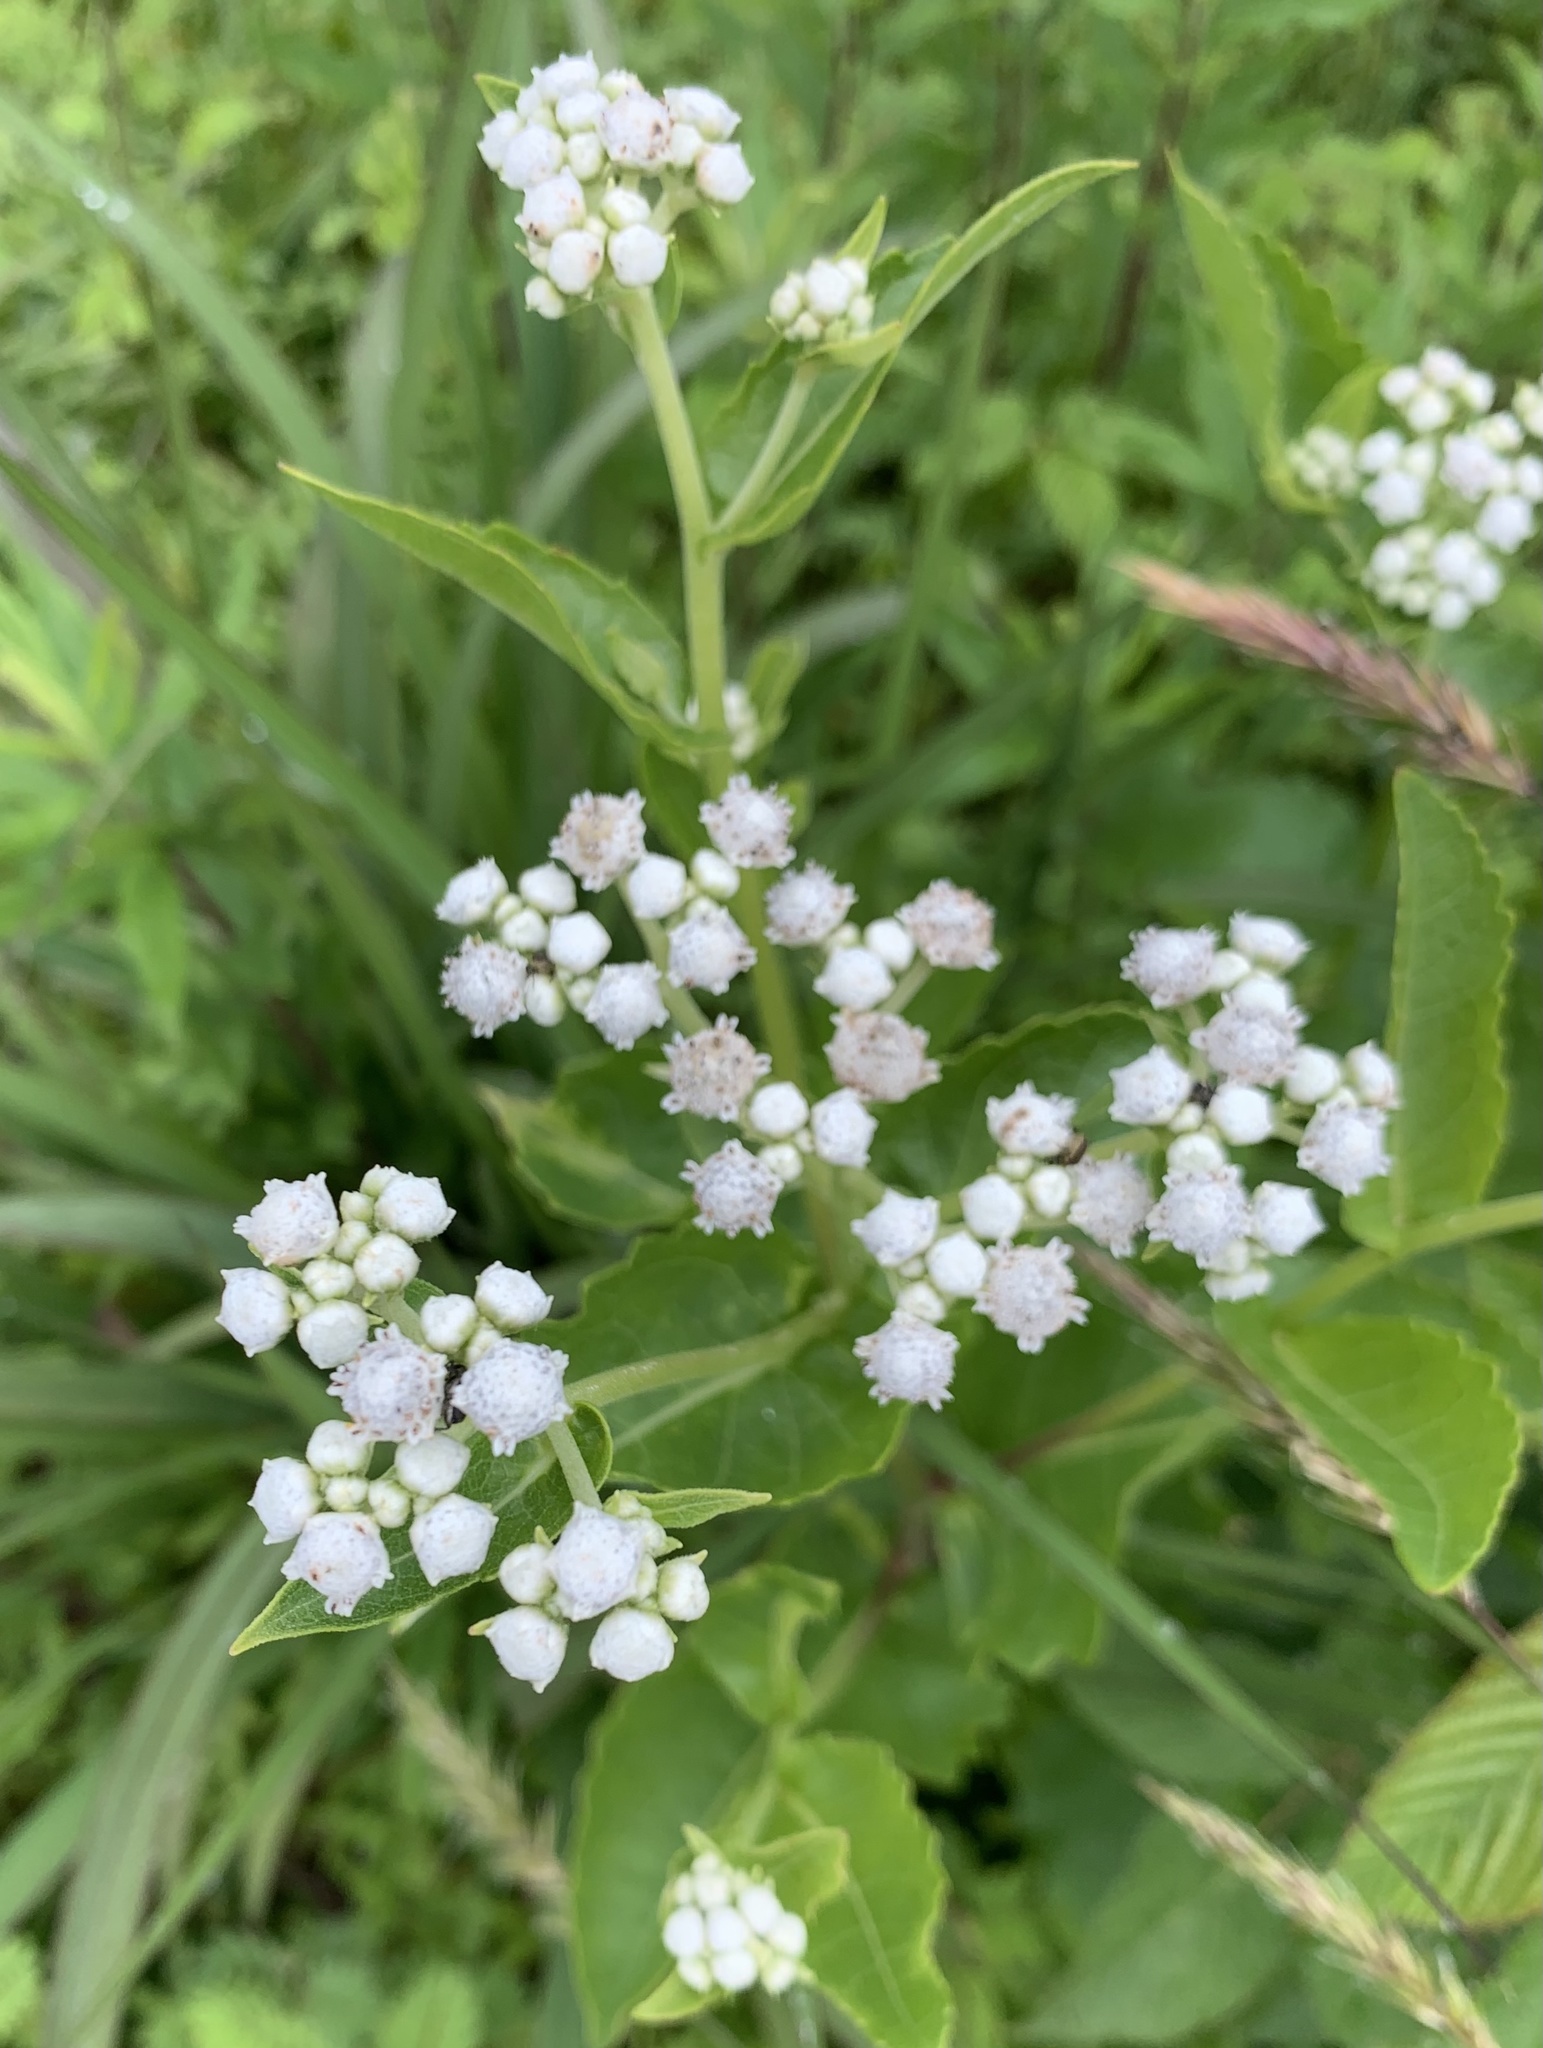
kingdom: Plantae
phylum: Tracheophyta
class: Magnoliopsida
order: Asterales
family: Asteraceae
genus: Parthenium
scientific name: Parthenium integrifolium
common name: American feverfew
